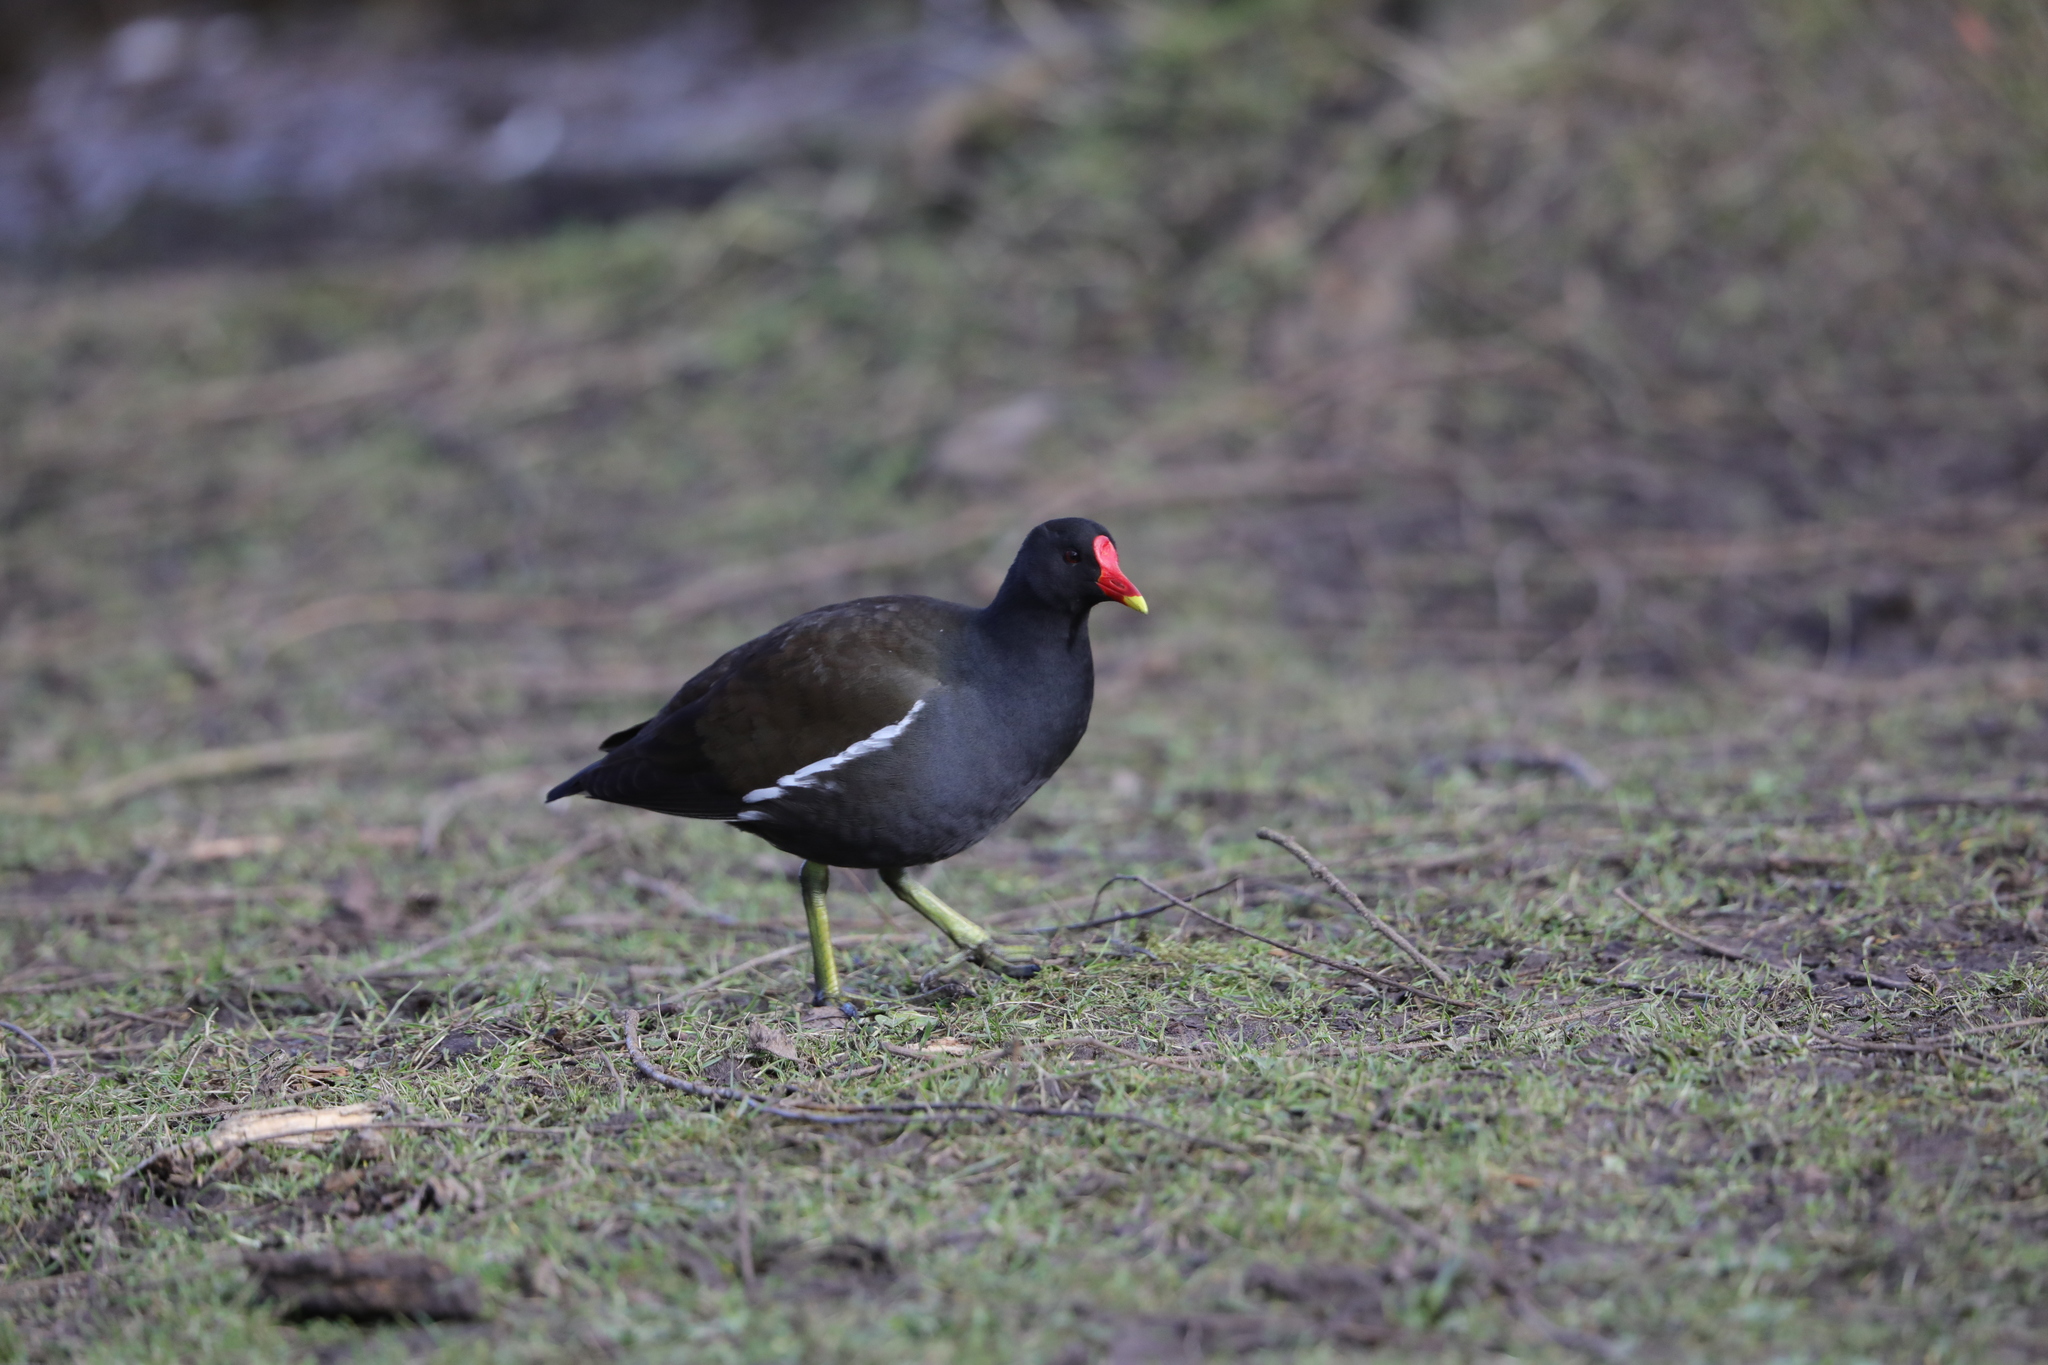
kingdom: Animalia
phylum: Chordata
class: Aves
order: Gruiformes
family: Rallidae
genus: Gallinula
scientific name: Gallinula chloropus
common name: Common moorhen
